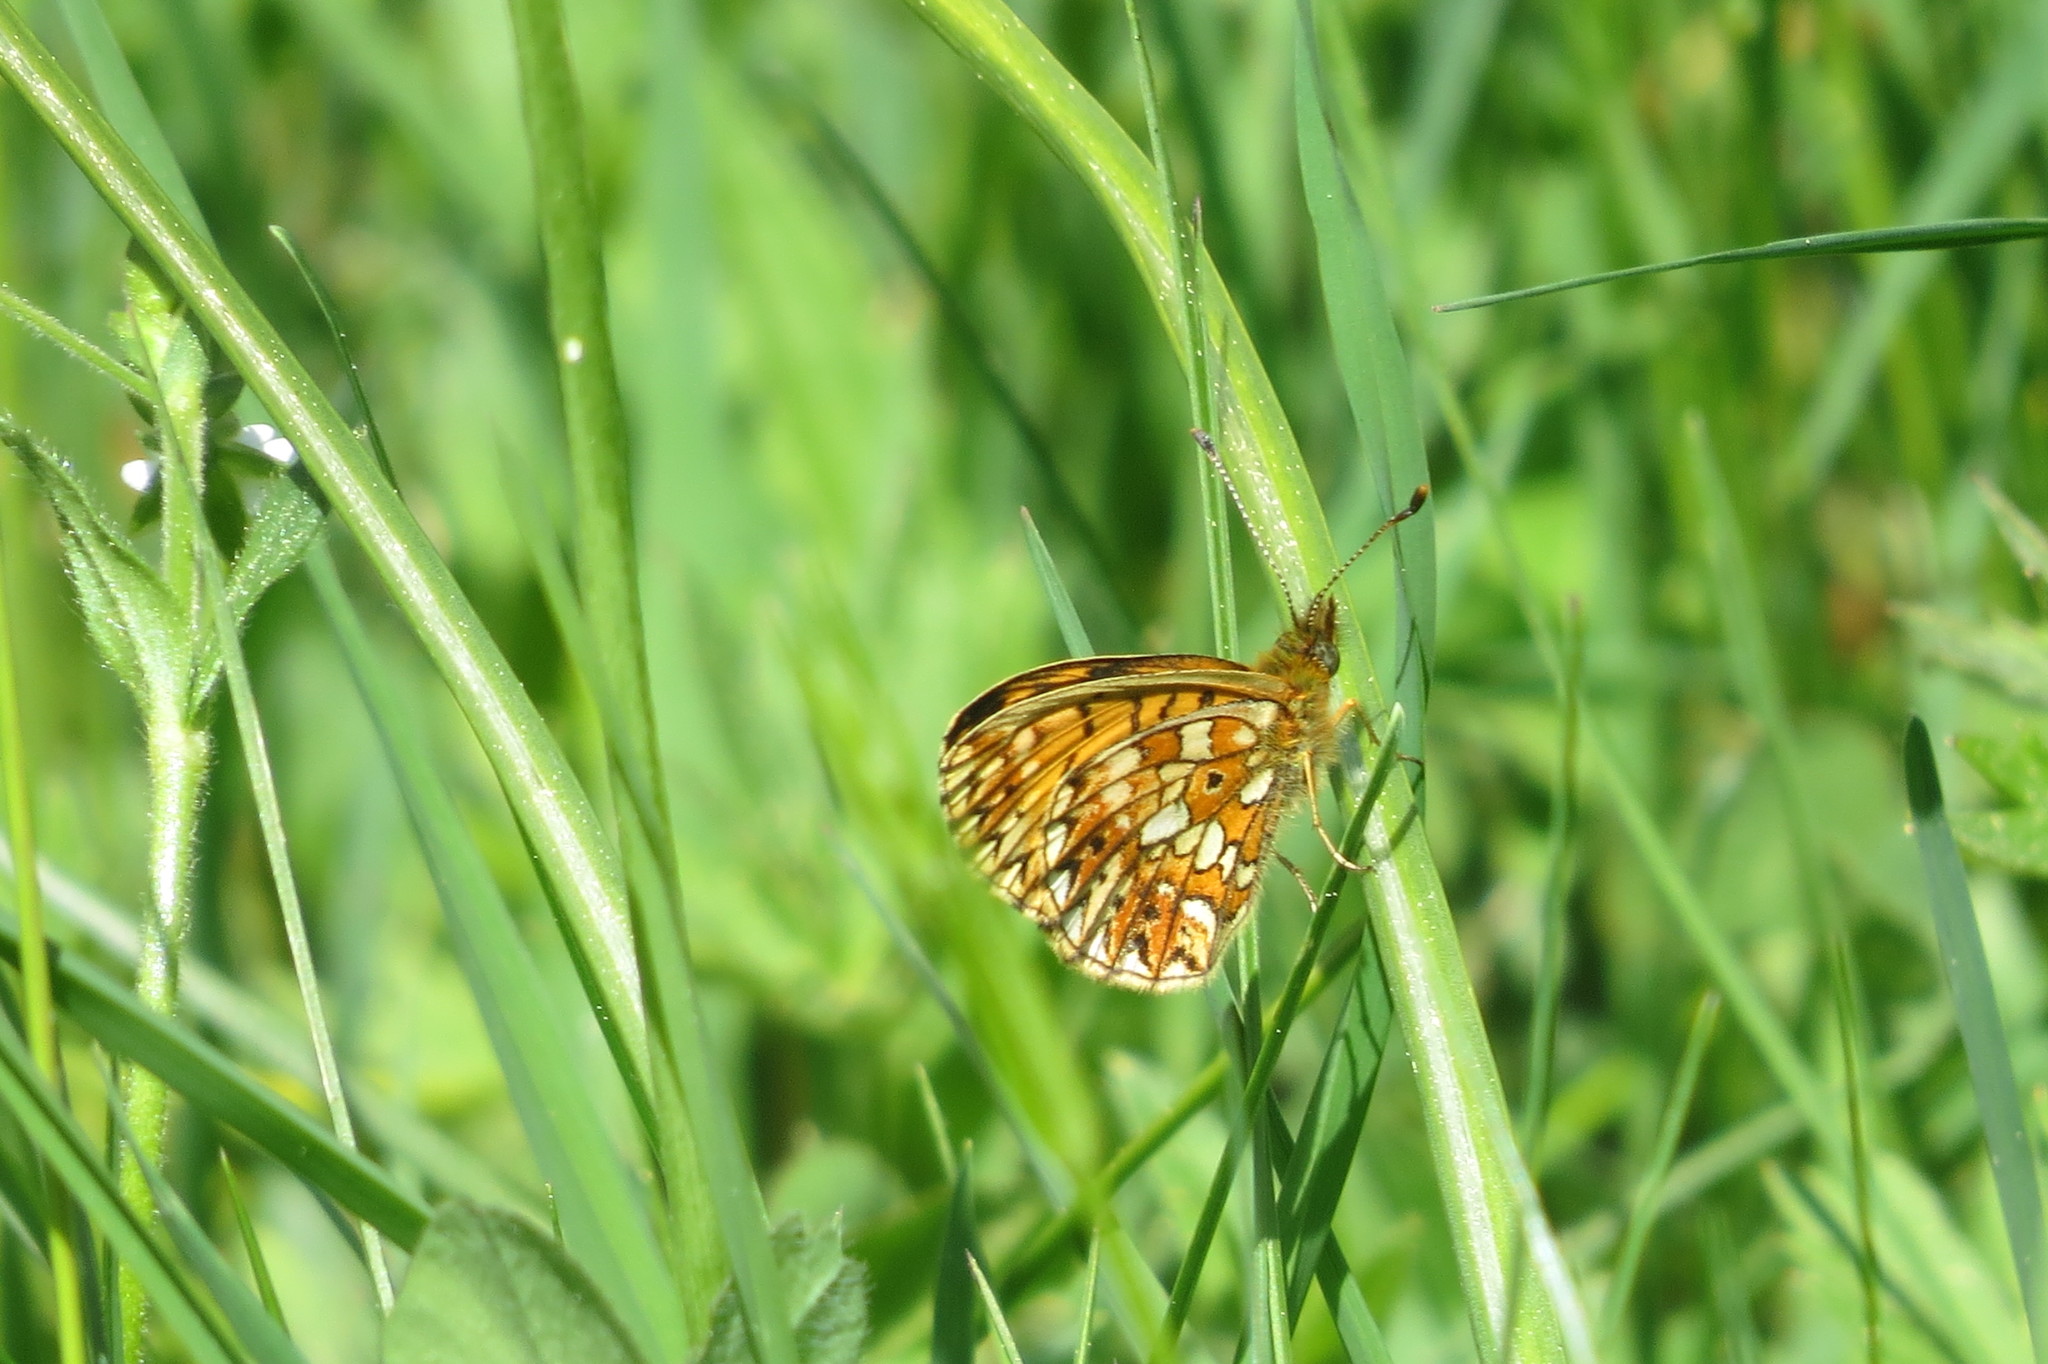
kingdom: Animalia
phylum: Arthropoda
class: Insecta
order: Lepidoptera
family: Nymphalidae
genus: Boloria
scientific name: Boloria selene
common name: Small pearl-bordered fritillary
